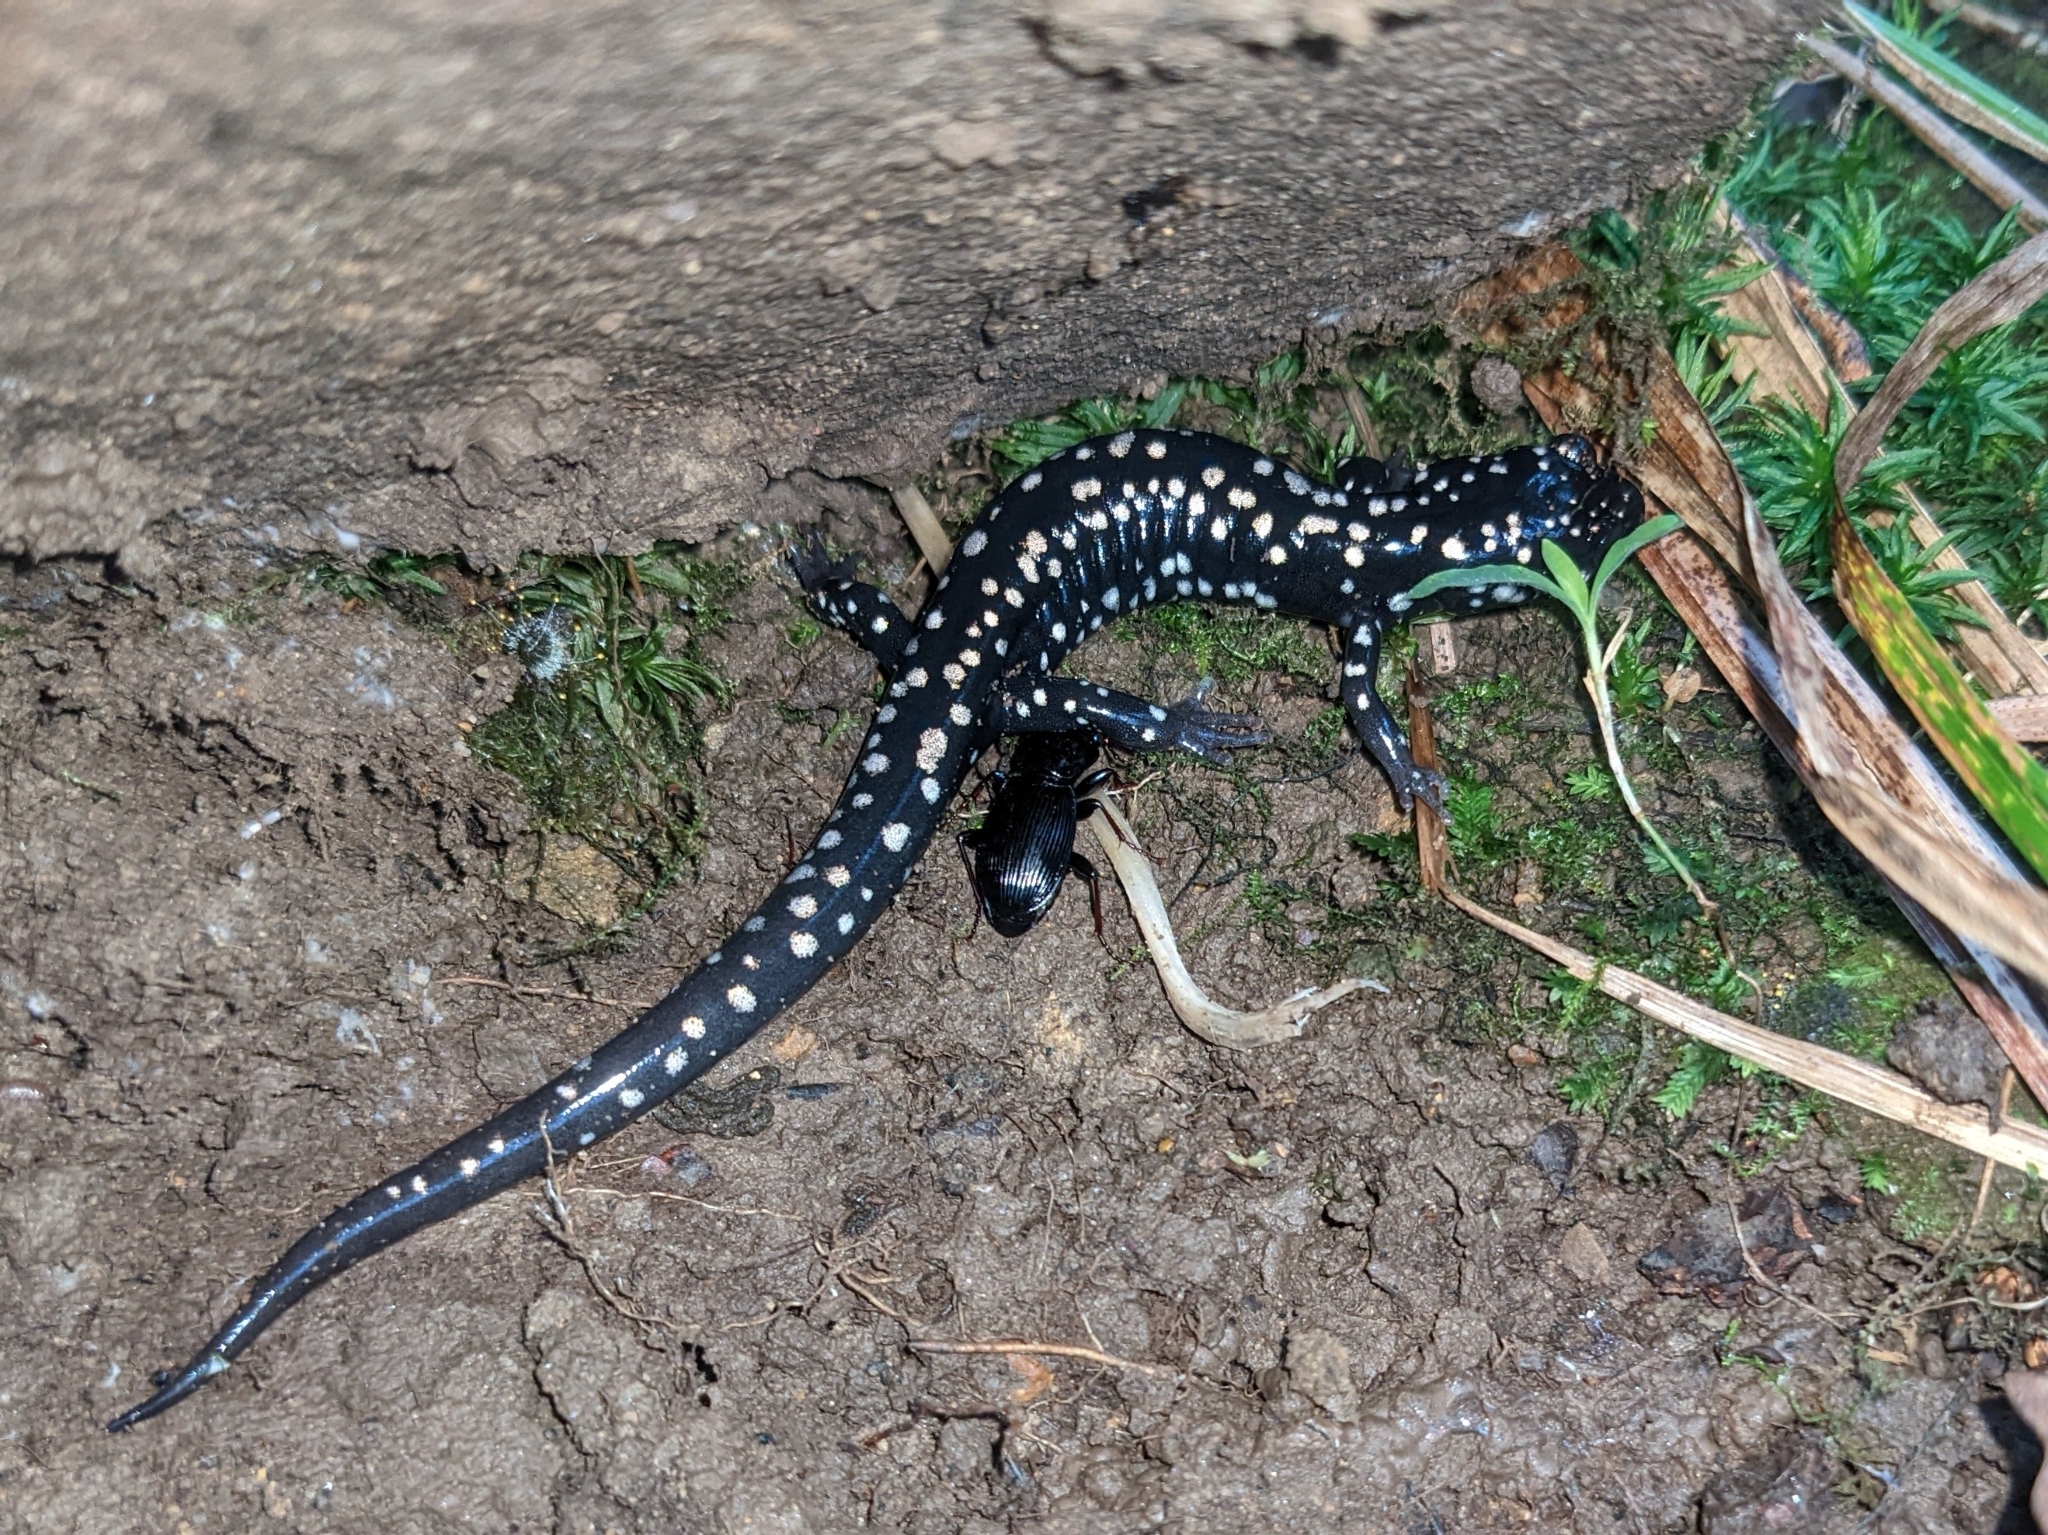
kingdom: Animalia
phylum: Chordata
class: Amphibia
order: Caudata
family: Plethodontidae
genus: Plethodon
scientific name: Plethodon glutinosus
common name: Northern slimy salamander
